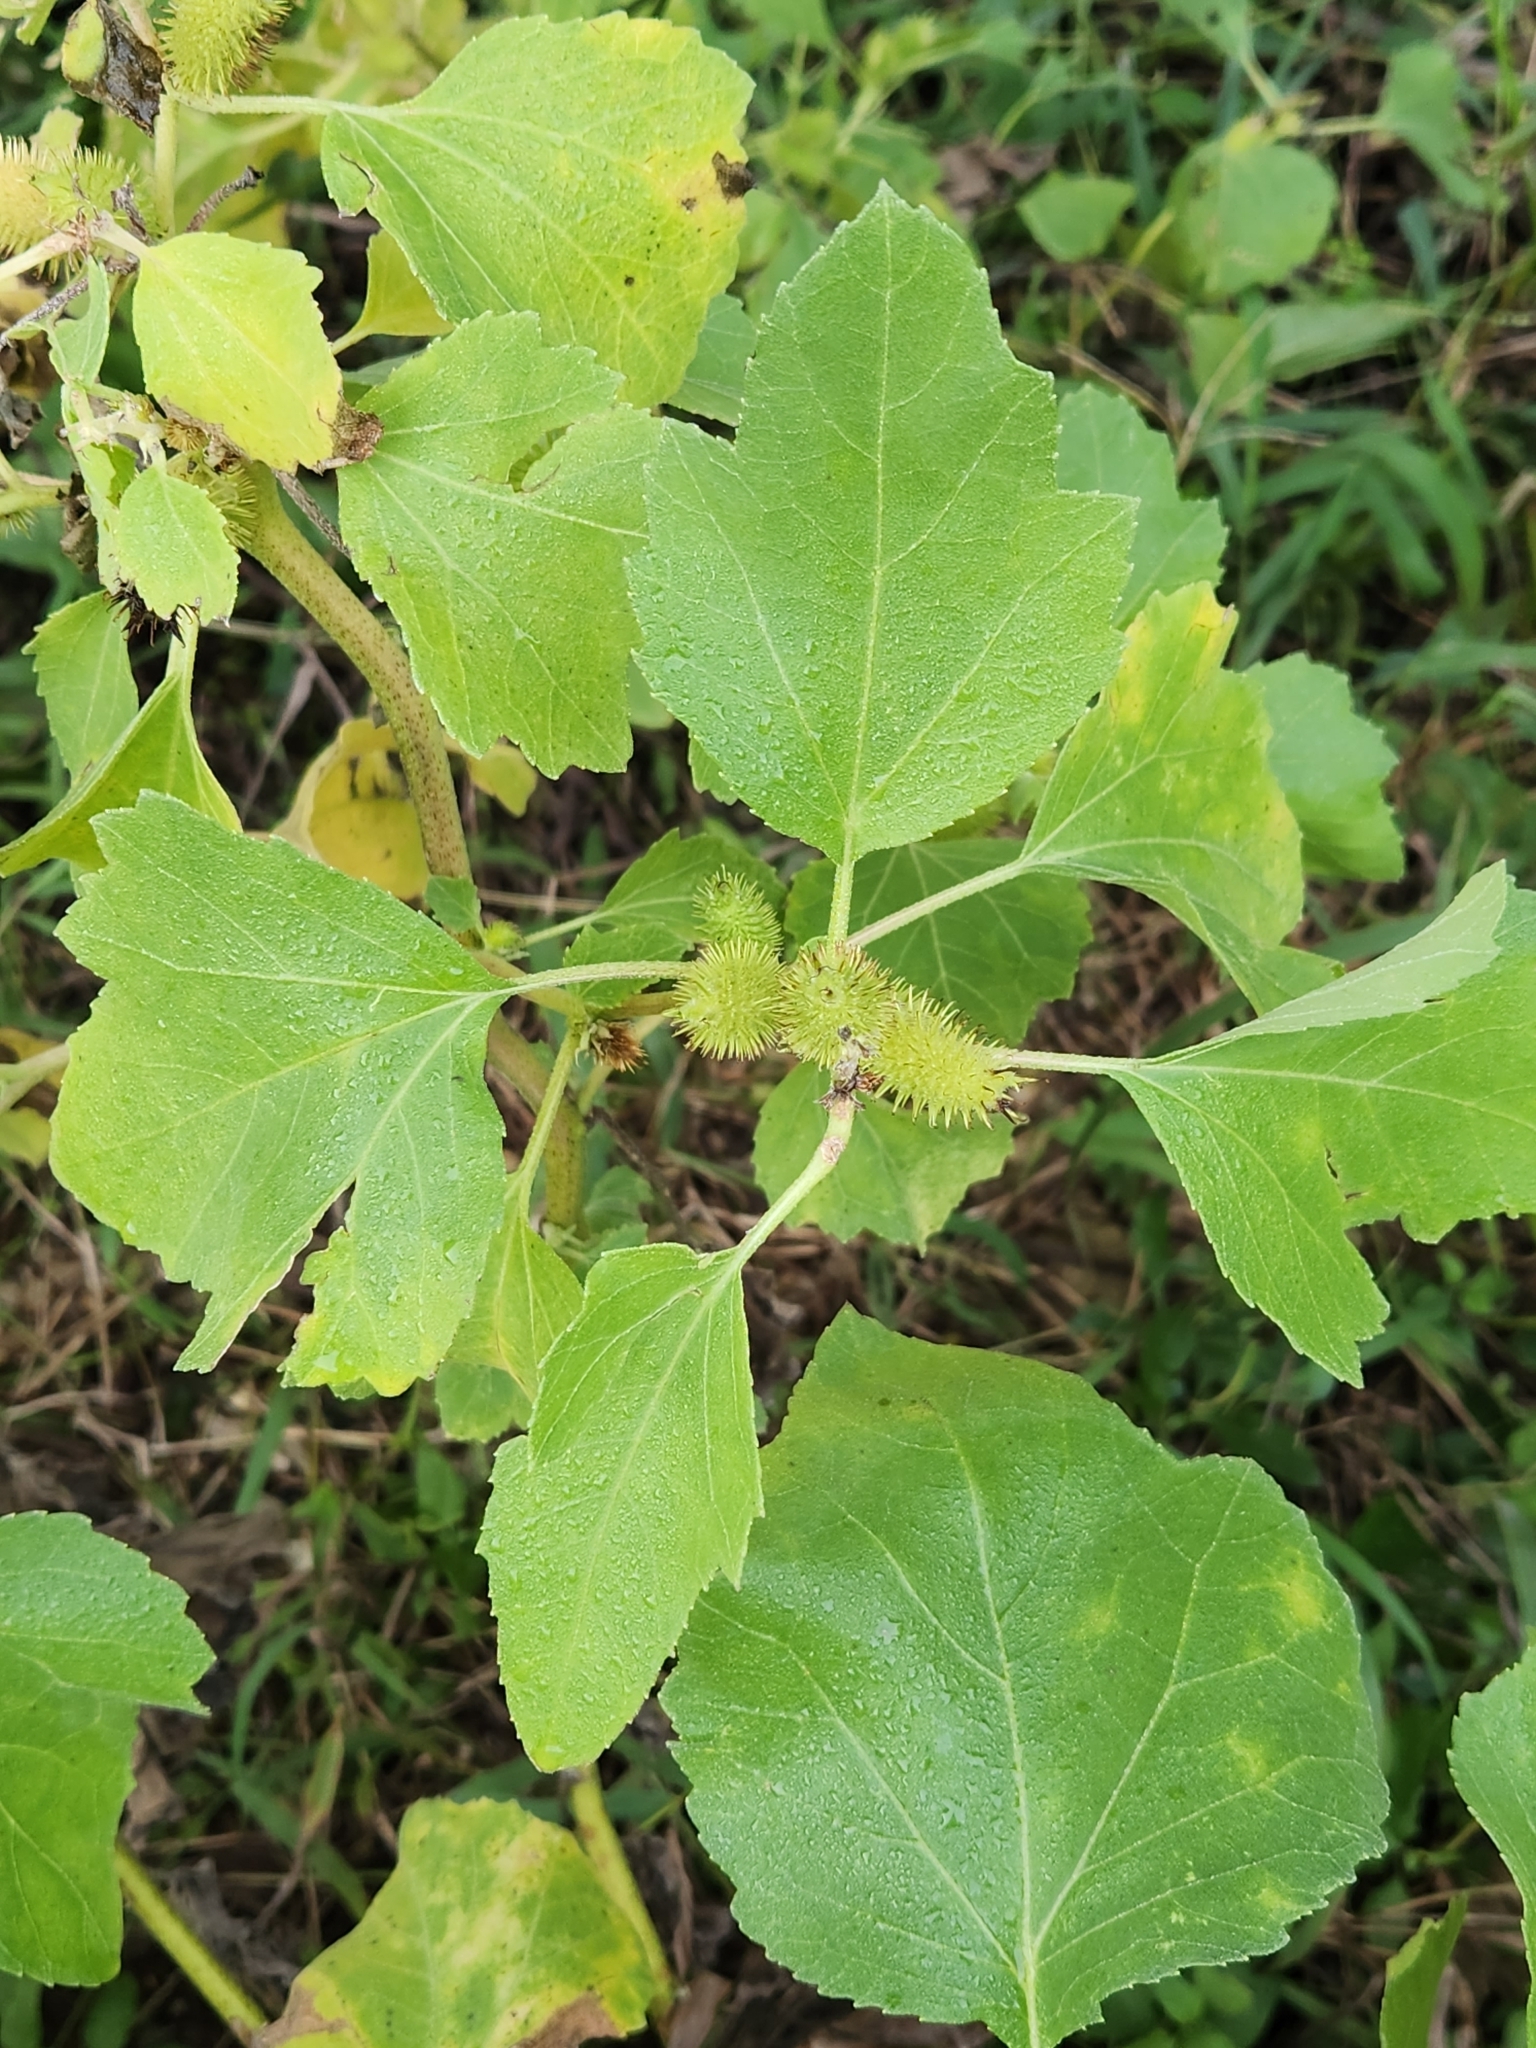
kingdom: Plantae
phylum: Tracheophyta
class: Magnoliopsida
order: Asterales
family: Asteraceae
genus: Xanthium
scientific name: Xanthium strumarium
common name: Rough cocklebur
